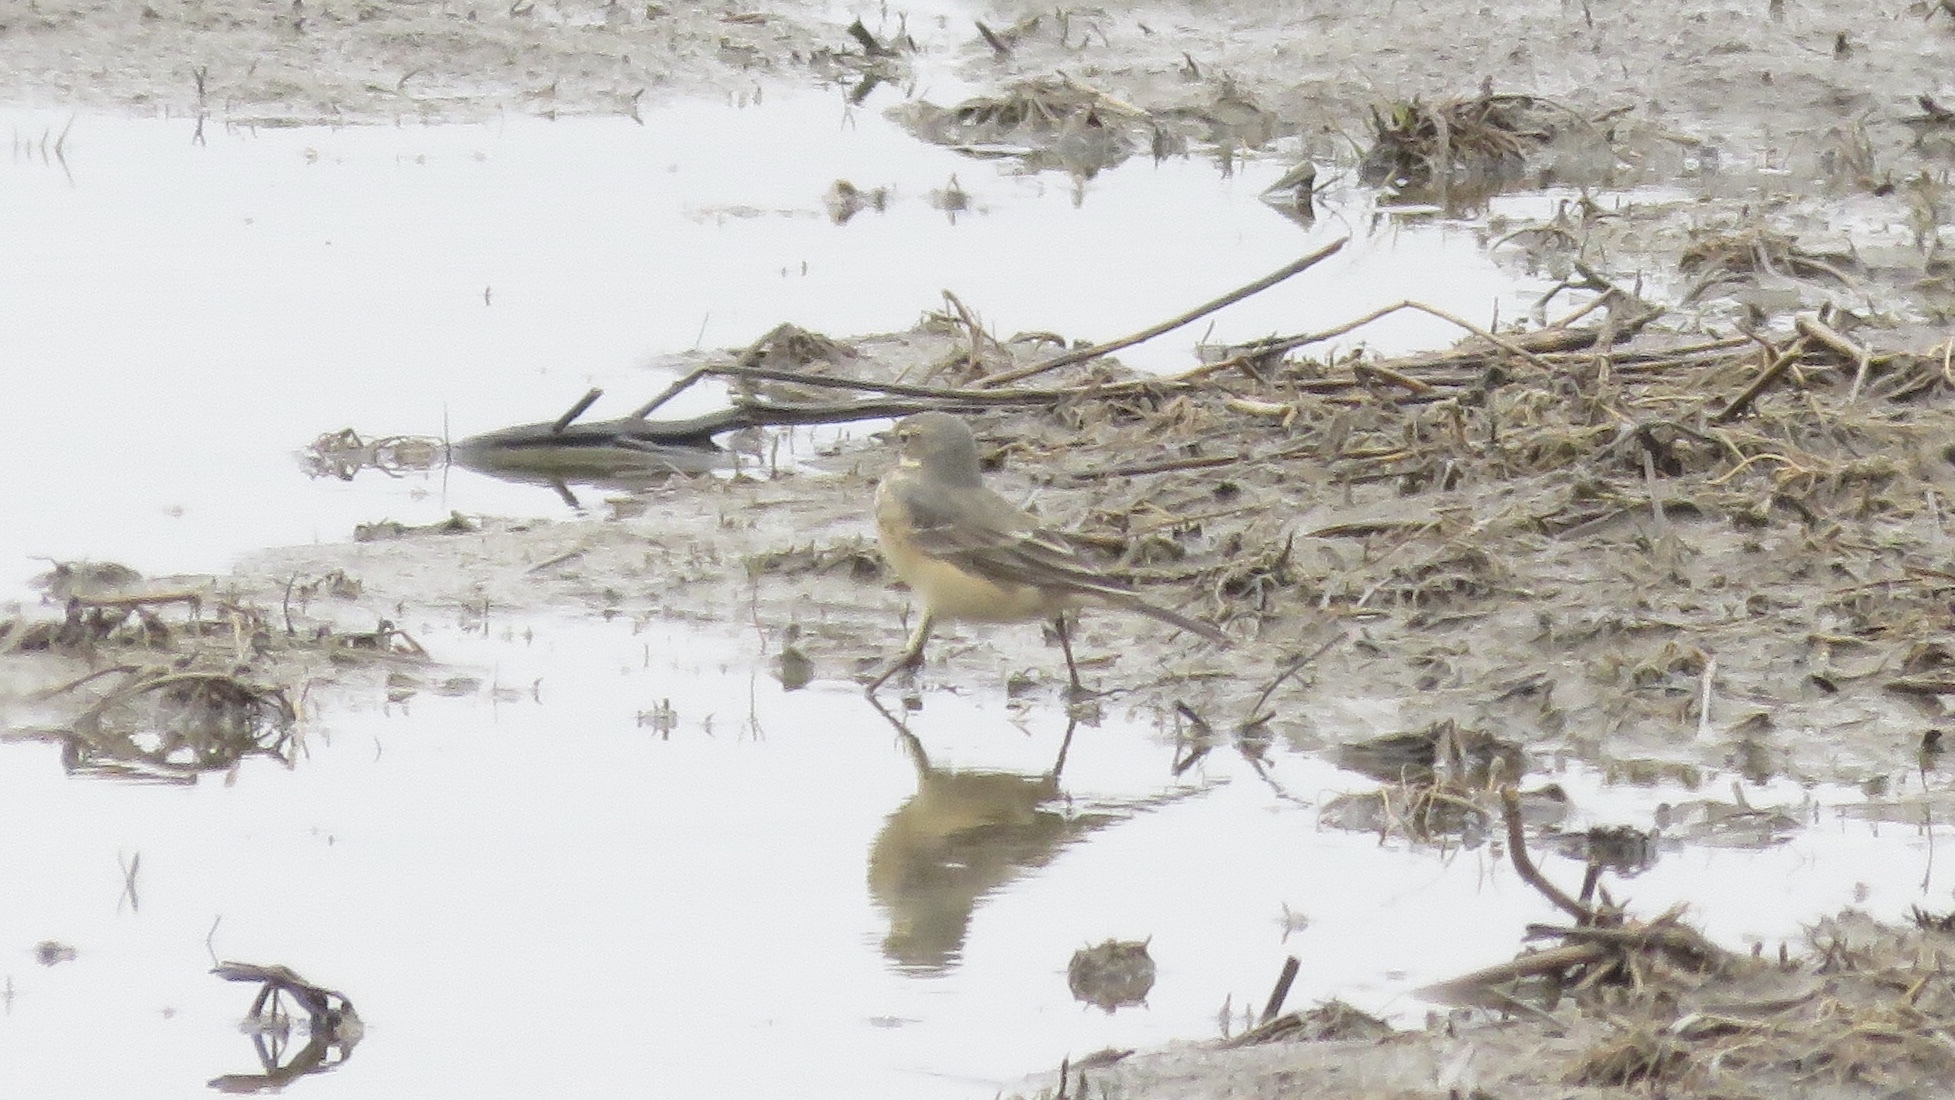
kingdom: Animalia
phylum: Chordata
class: Aves
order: Passeriformes
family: Motacillidae
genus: Anthus
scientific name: Anthus rubescens
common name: Buff-bellied pipit
